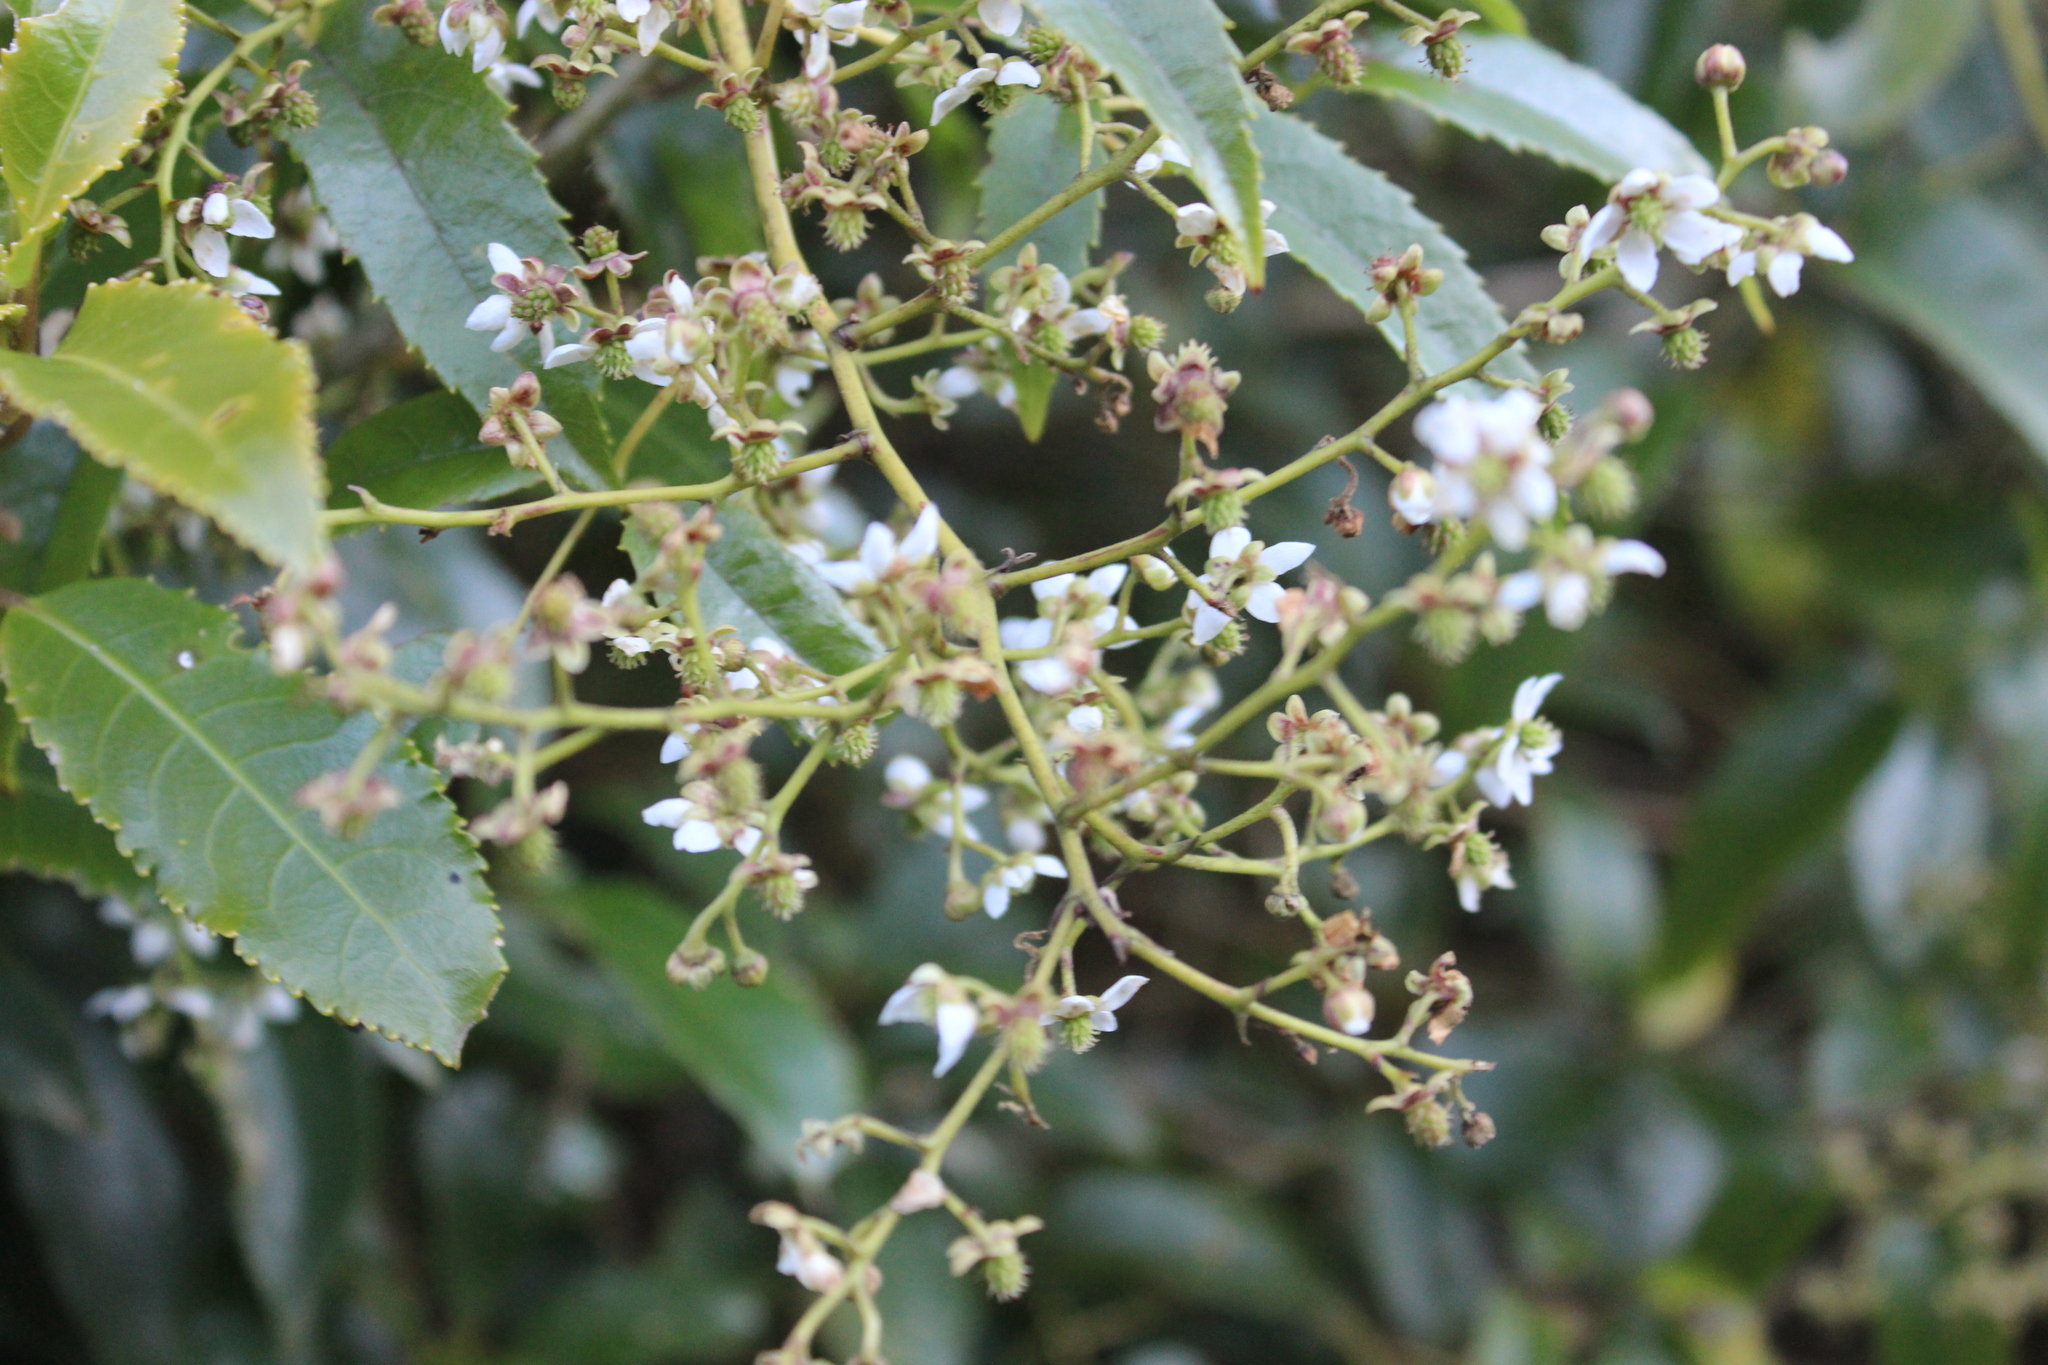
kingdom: Plantae
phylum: Tracheophyta
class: Magnoliopsida
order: Rosales
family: Rosaceae
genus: Rubus
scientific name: Rubus cissoides
